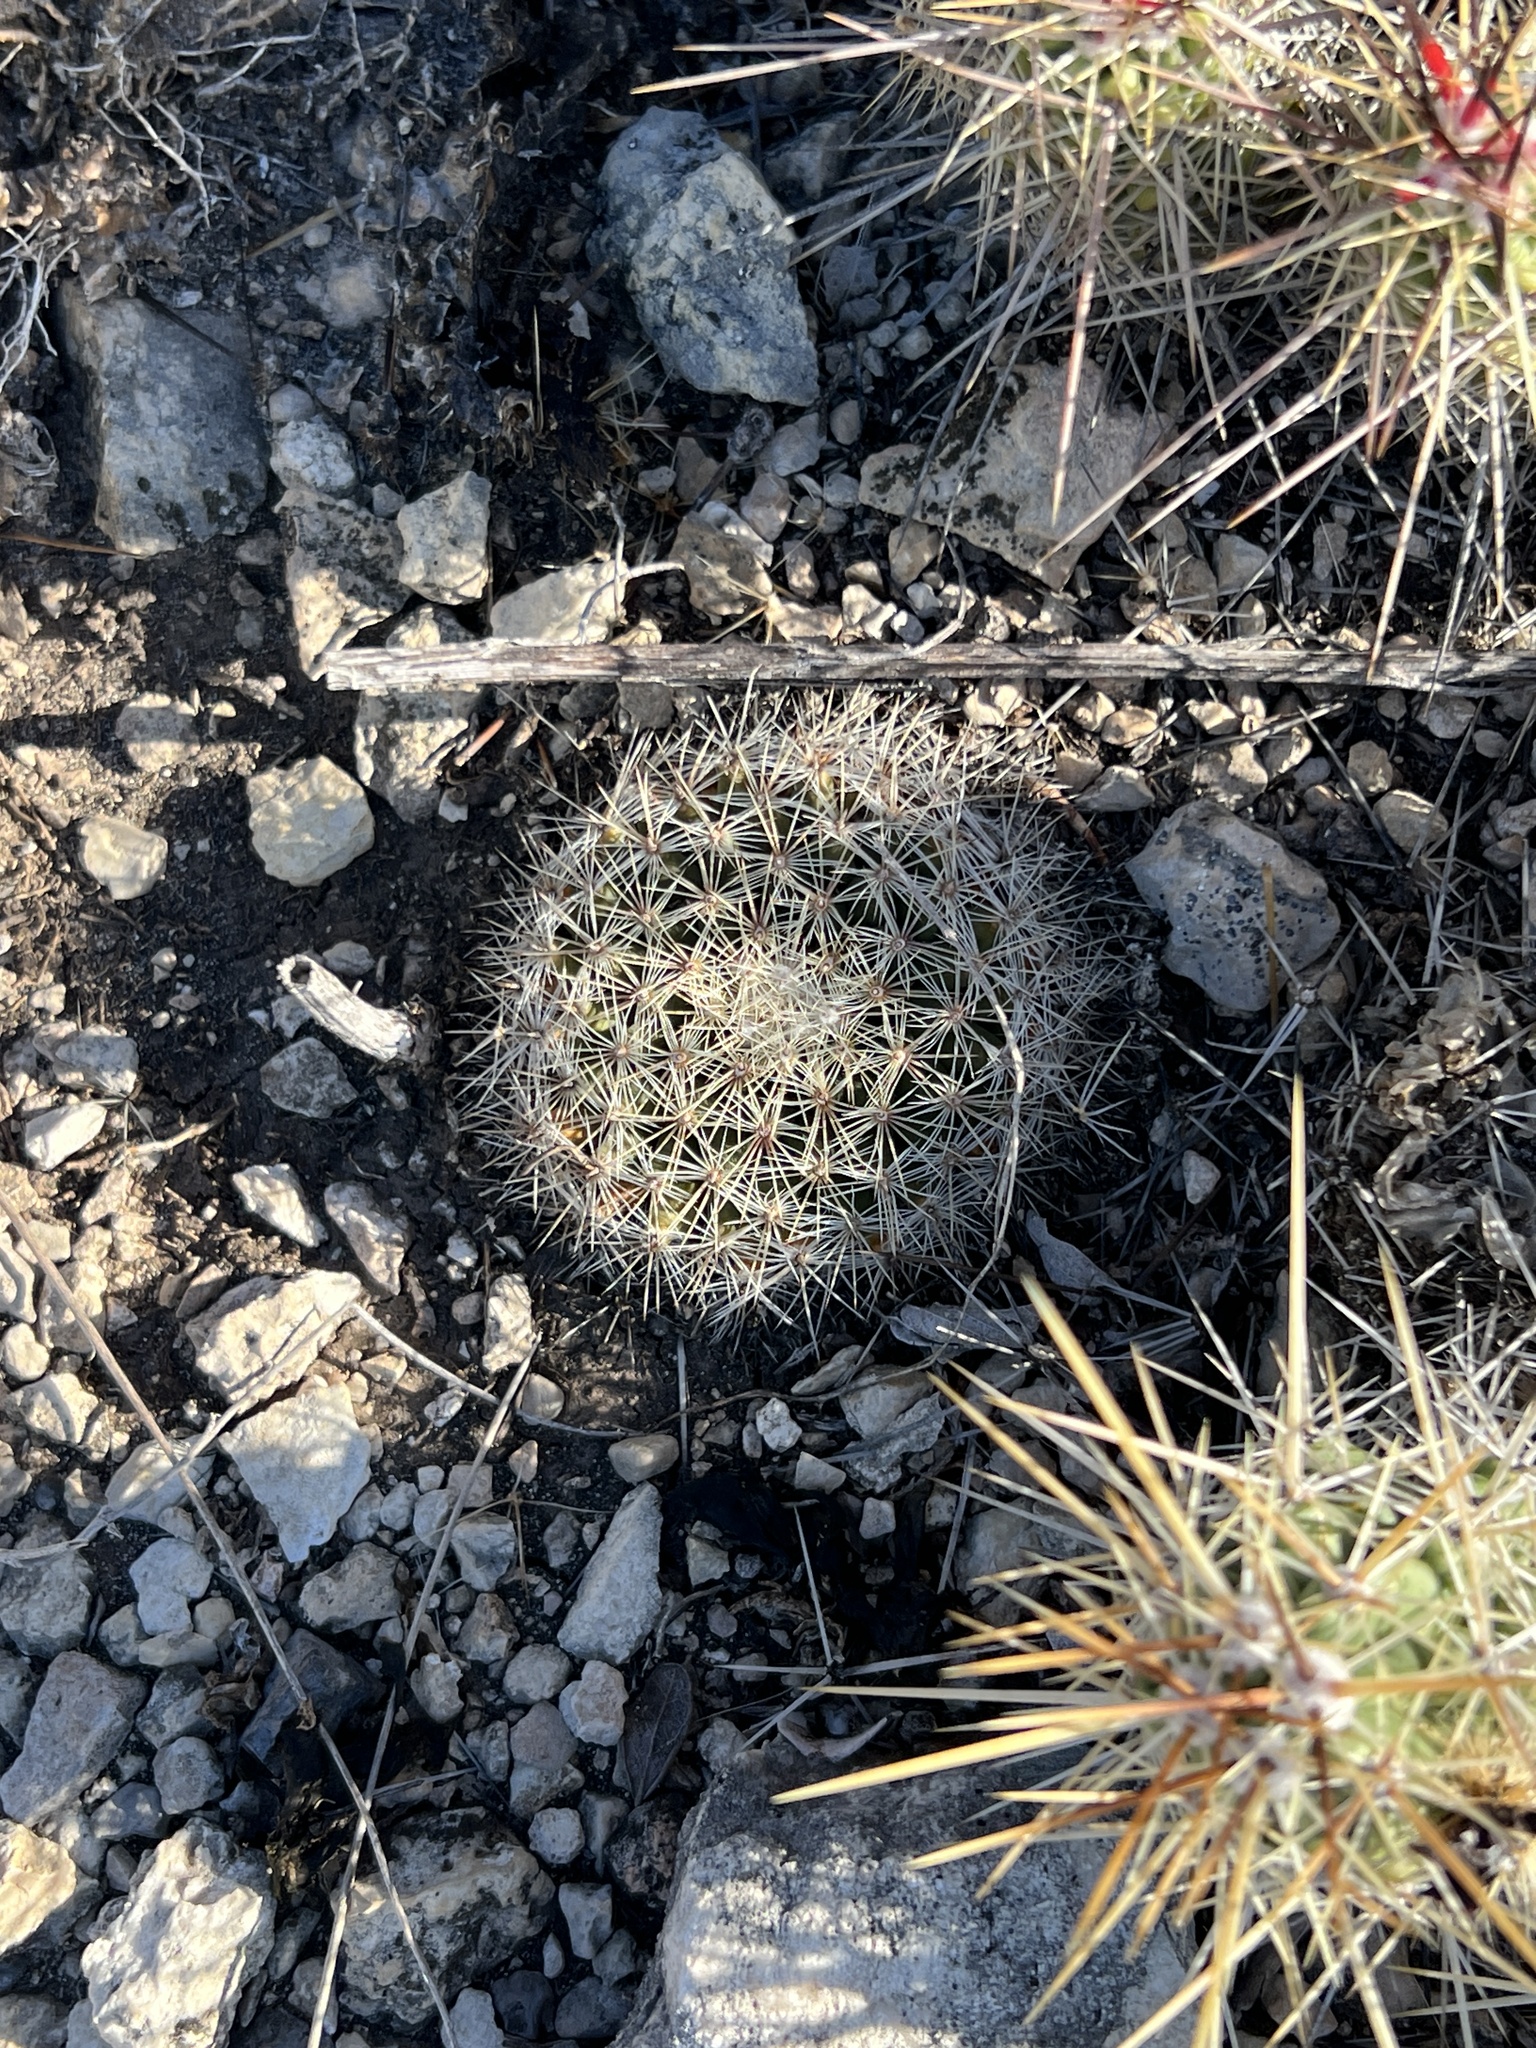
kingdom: Plantae
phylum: Tracheophyta
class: Magnoliopsida
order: Caryophyllales
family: Cactaceae
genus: Mammillaria
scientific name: Mammillaria heyderi
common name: Little nipple cactus
